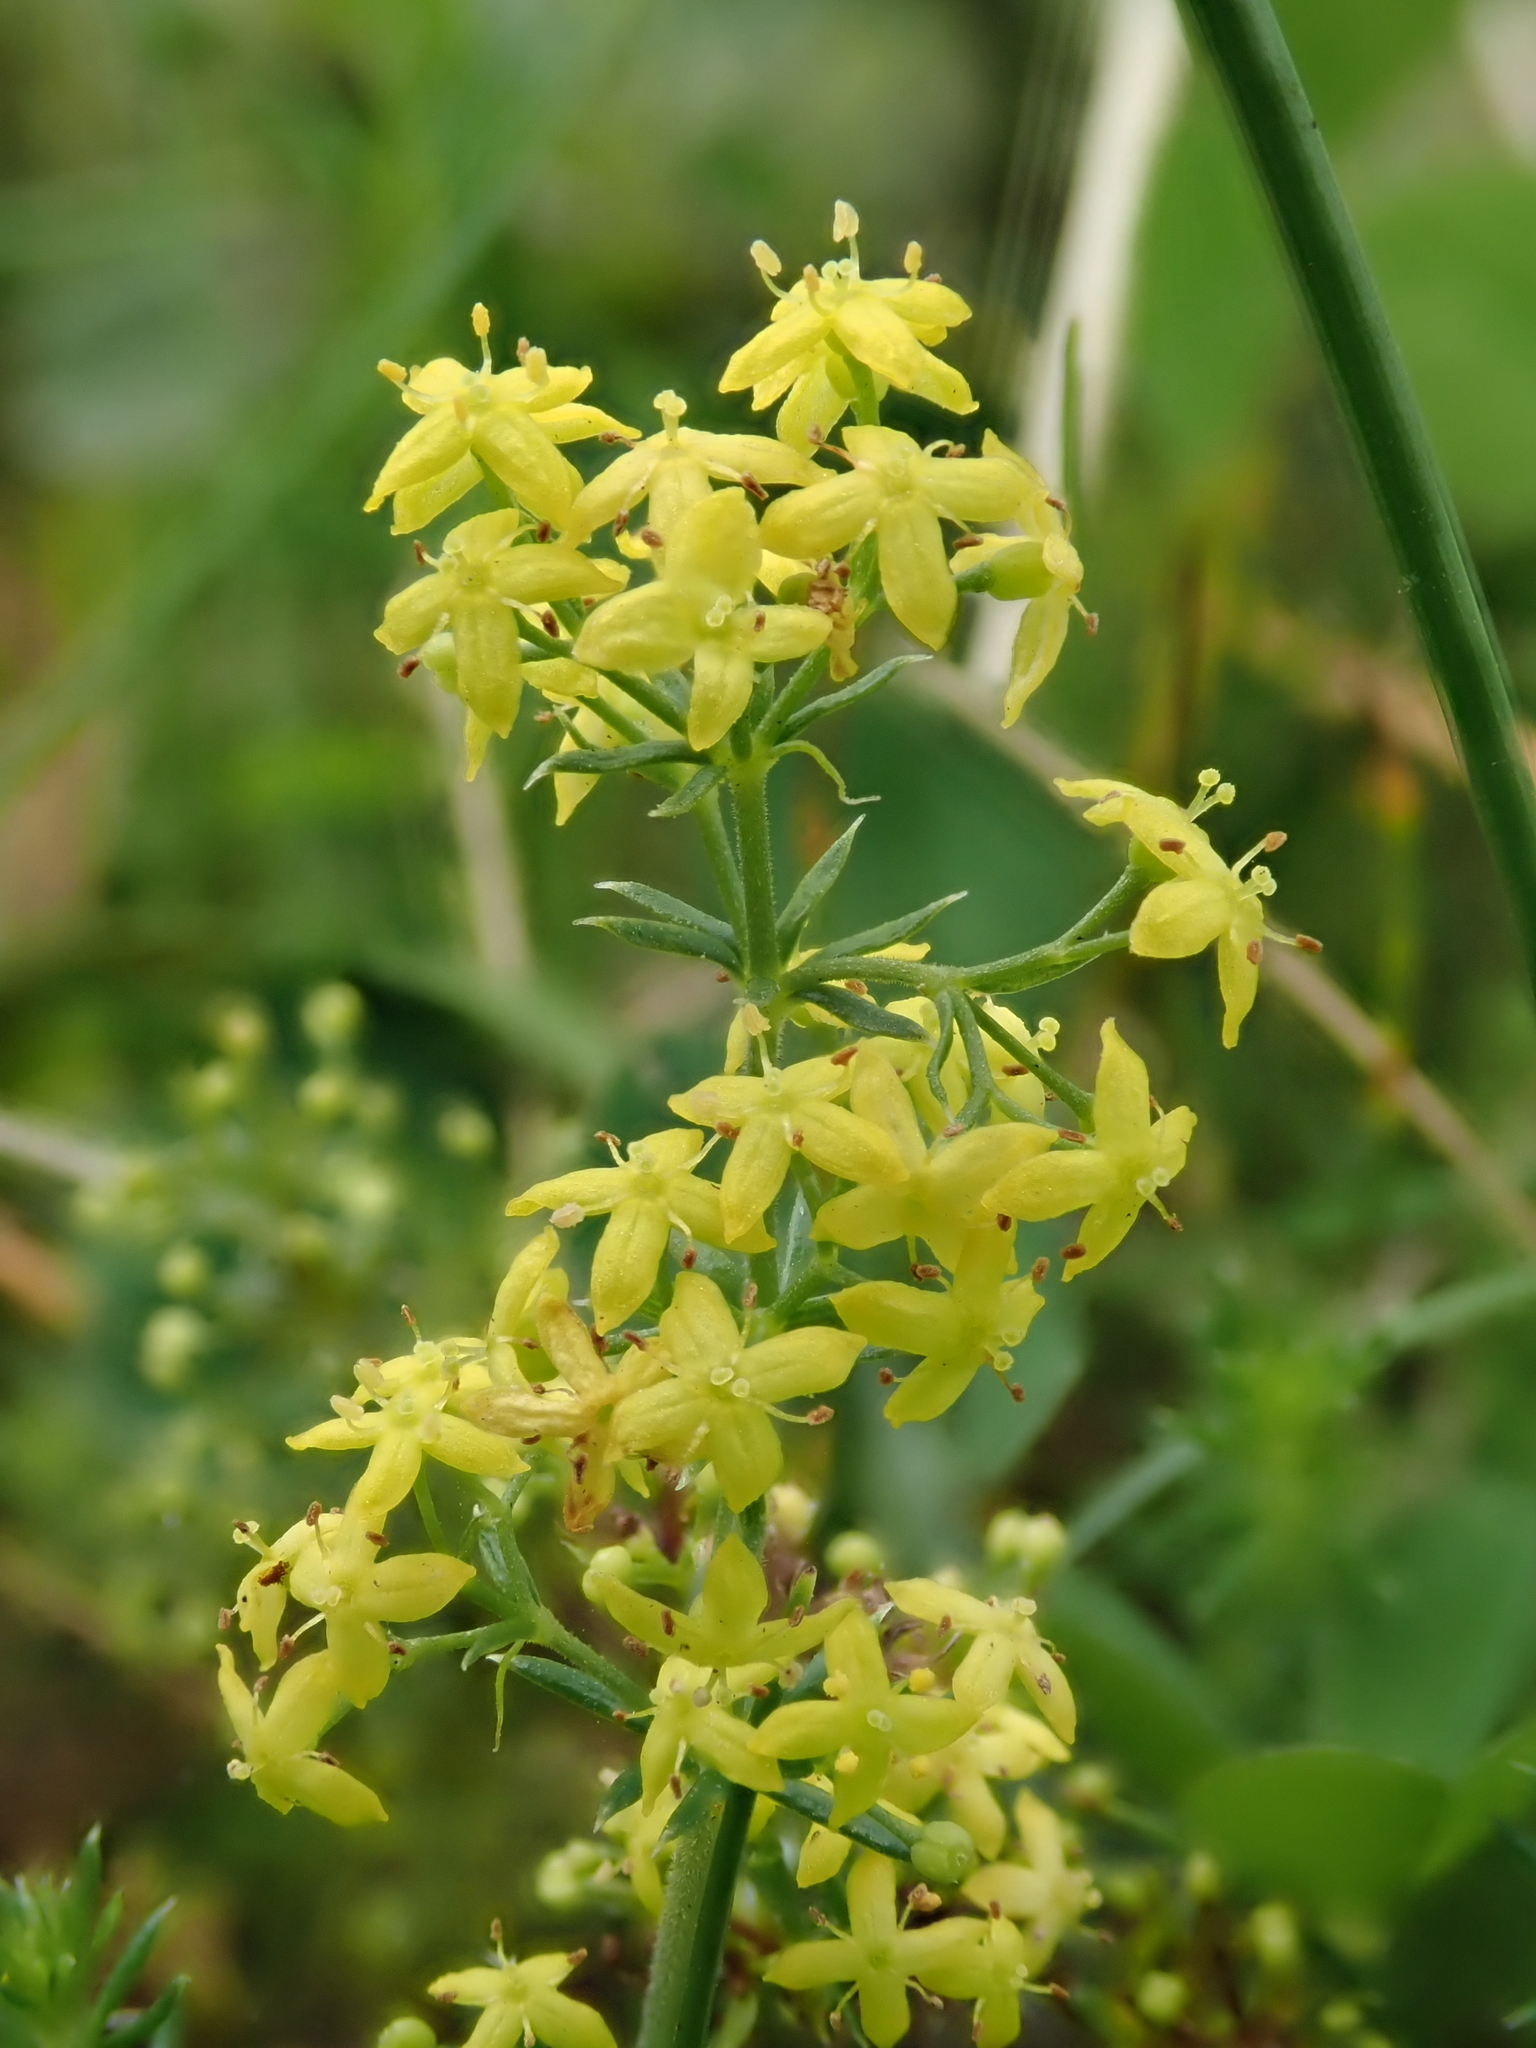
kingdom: Plantae
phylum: Tracheophyta
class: Magnoliopsida
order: Gentianales
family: Rubiaceae
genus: Galium
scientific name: Galium verum
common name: Lady's bedstraw
